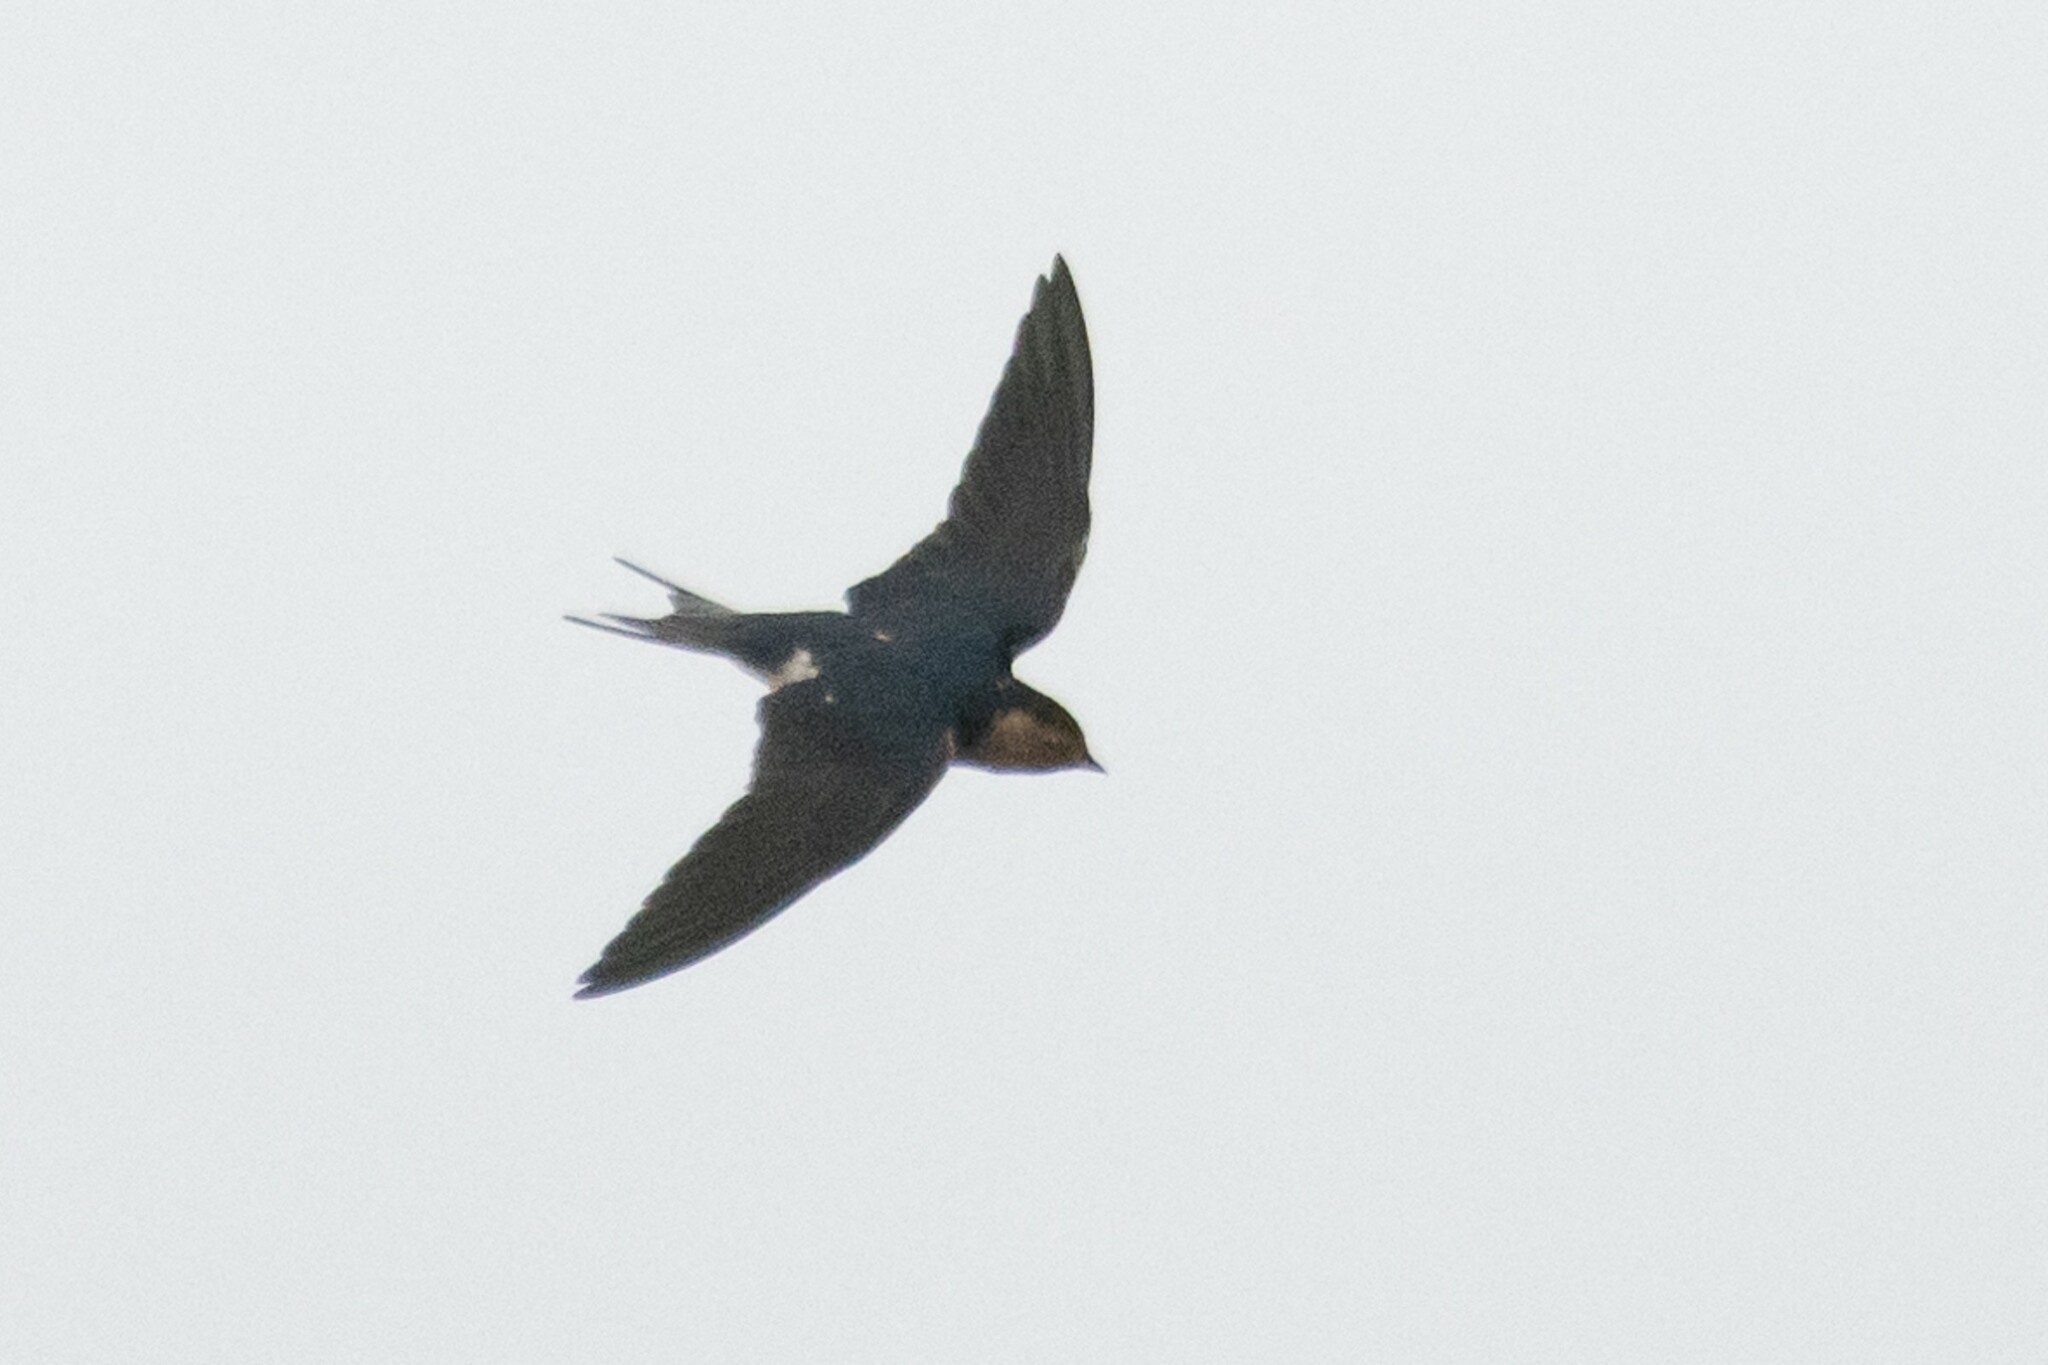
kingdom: Animalia
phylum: Chordata
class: Aves
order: Passeriformes
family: Hirundinidae
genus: Hirundo
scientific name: Hirundo rustica
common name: Barn swallow
